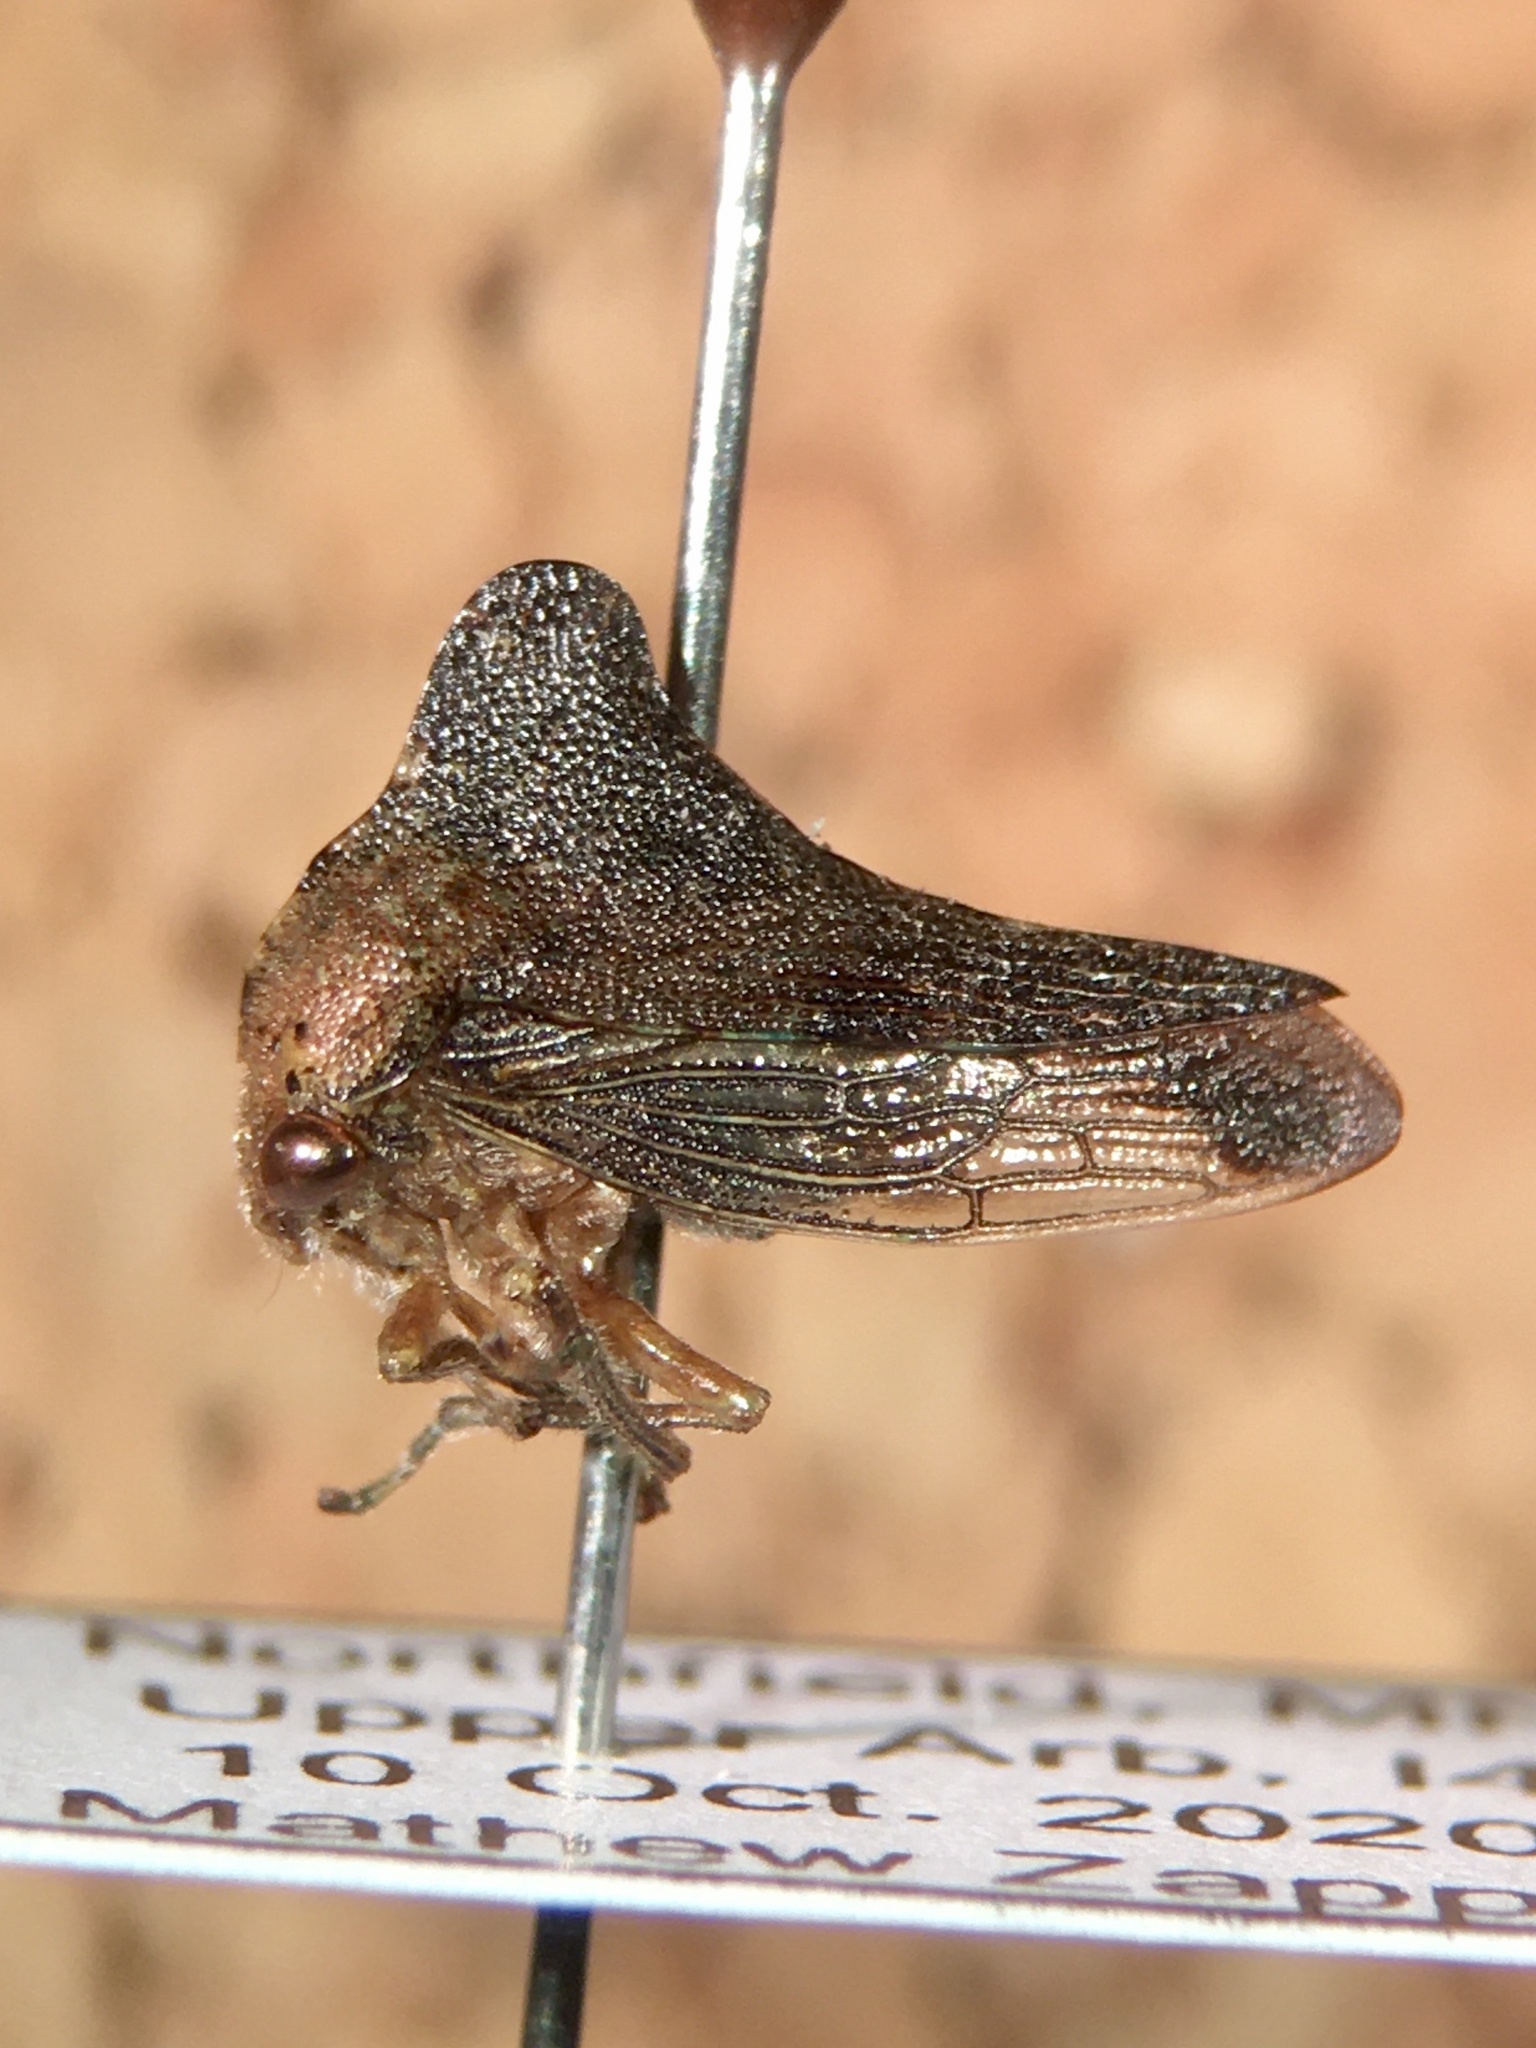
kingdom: Animalia
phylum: Arthropoda
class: Insecta
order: Hemiptera
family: Membracidae
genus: Telamona
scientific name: Telamona tarda
